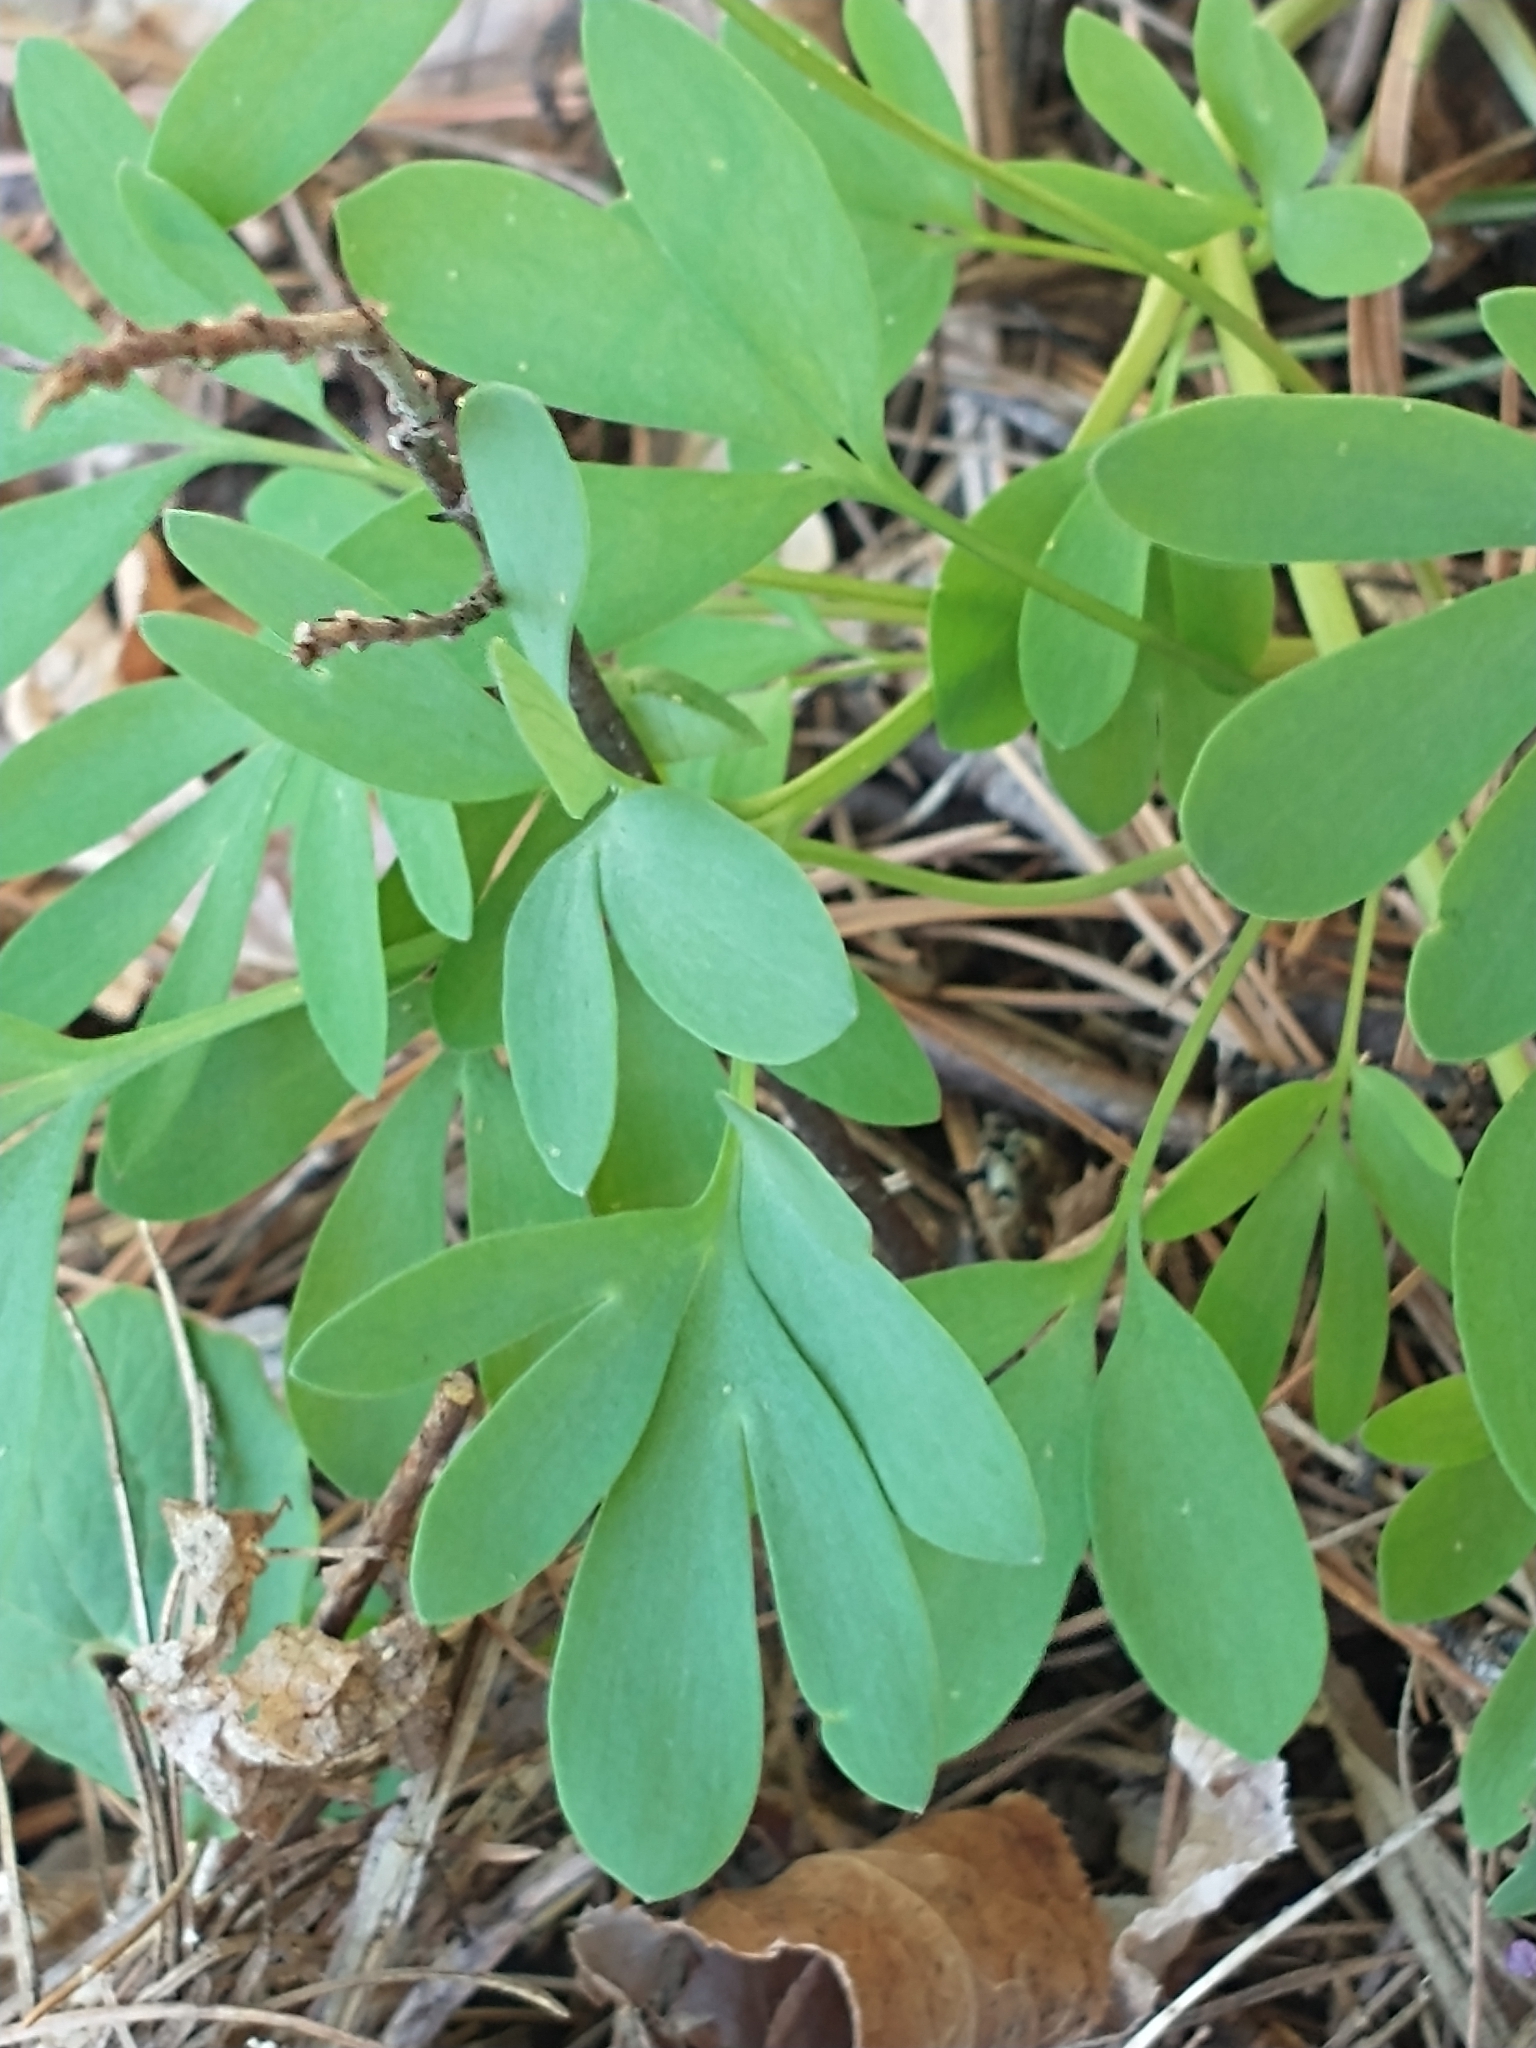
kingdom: Plantae
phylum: Tracheophyta
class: Magnoliopsida
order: Ranunculales
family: Papaveraceae
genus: Corydalis
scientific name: Corydalis solida
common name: Bird-in-a-bush
